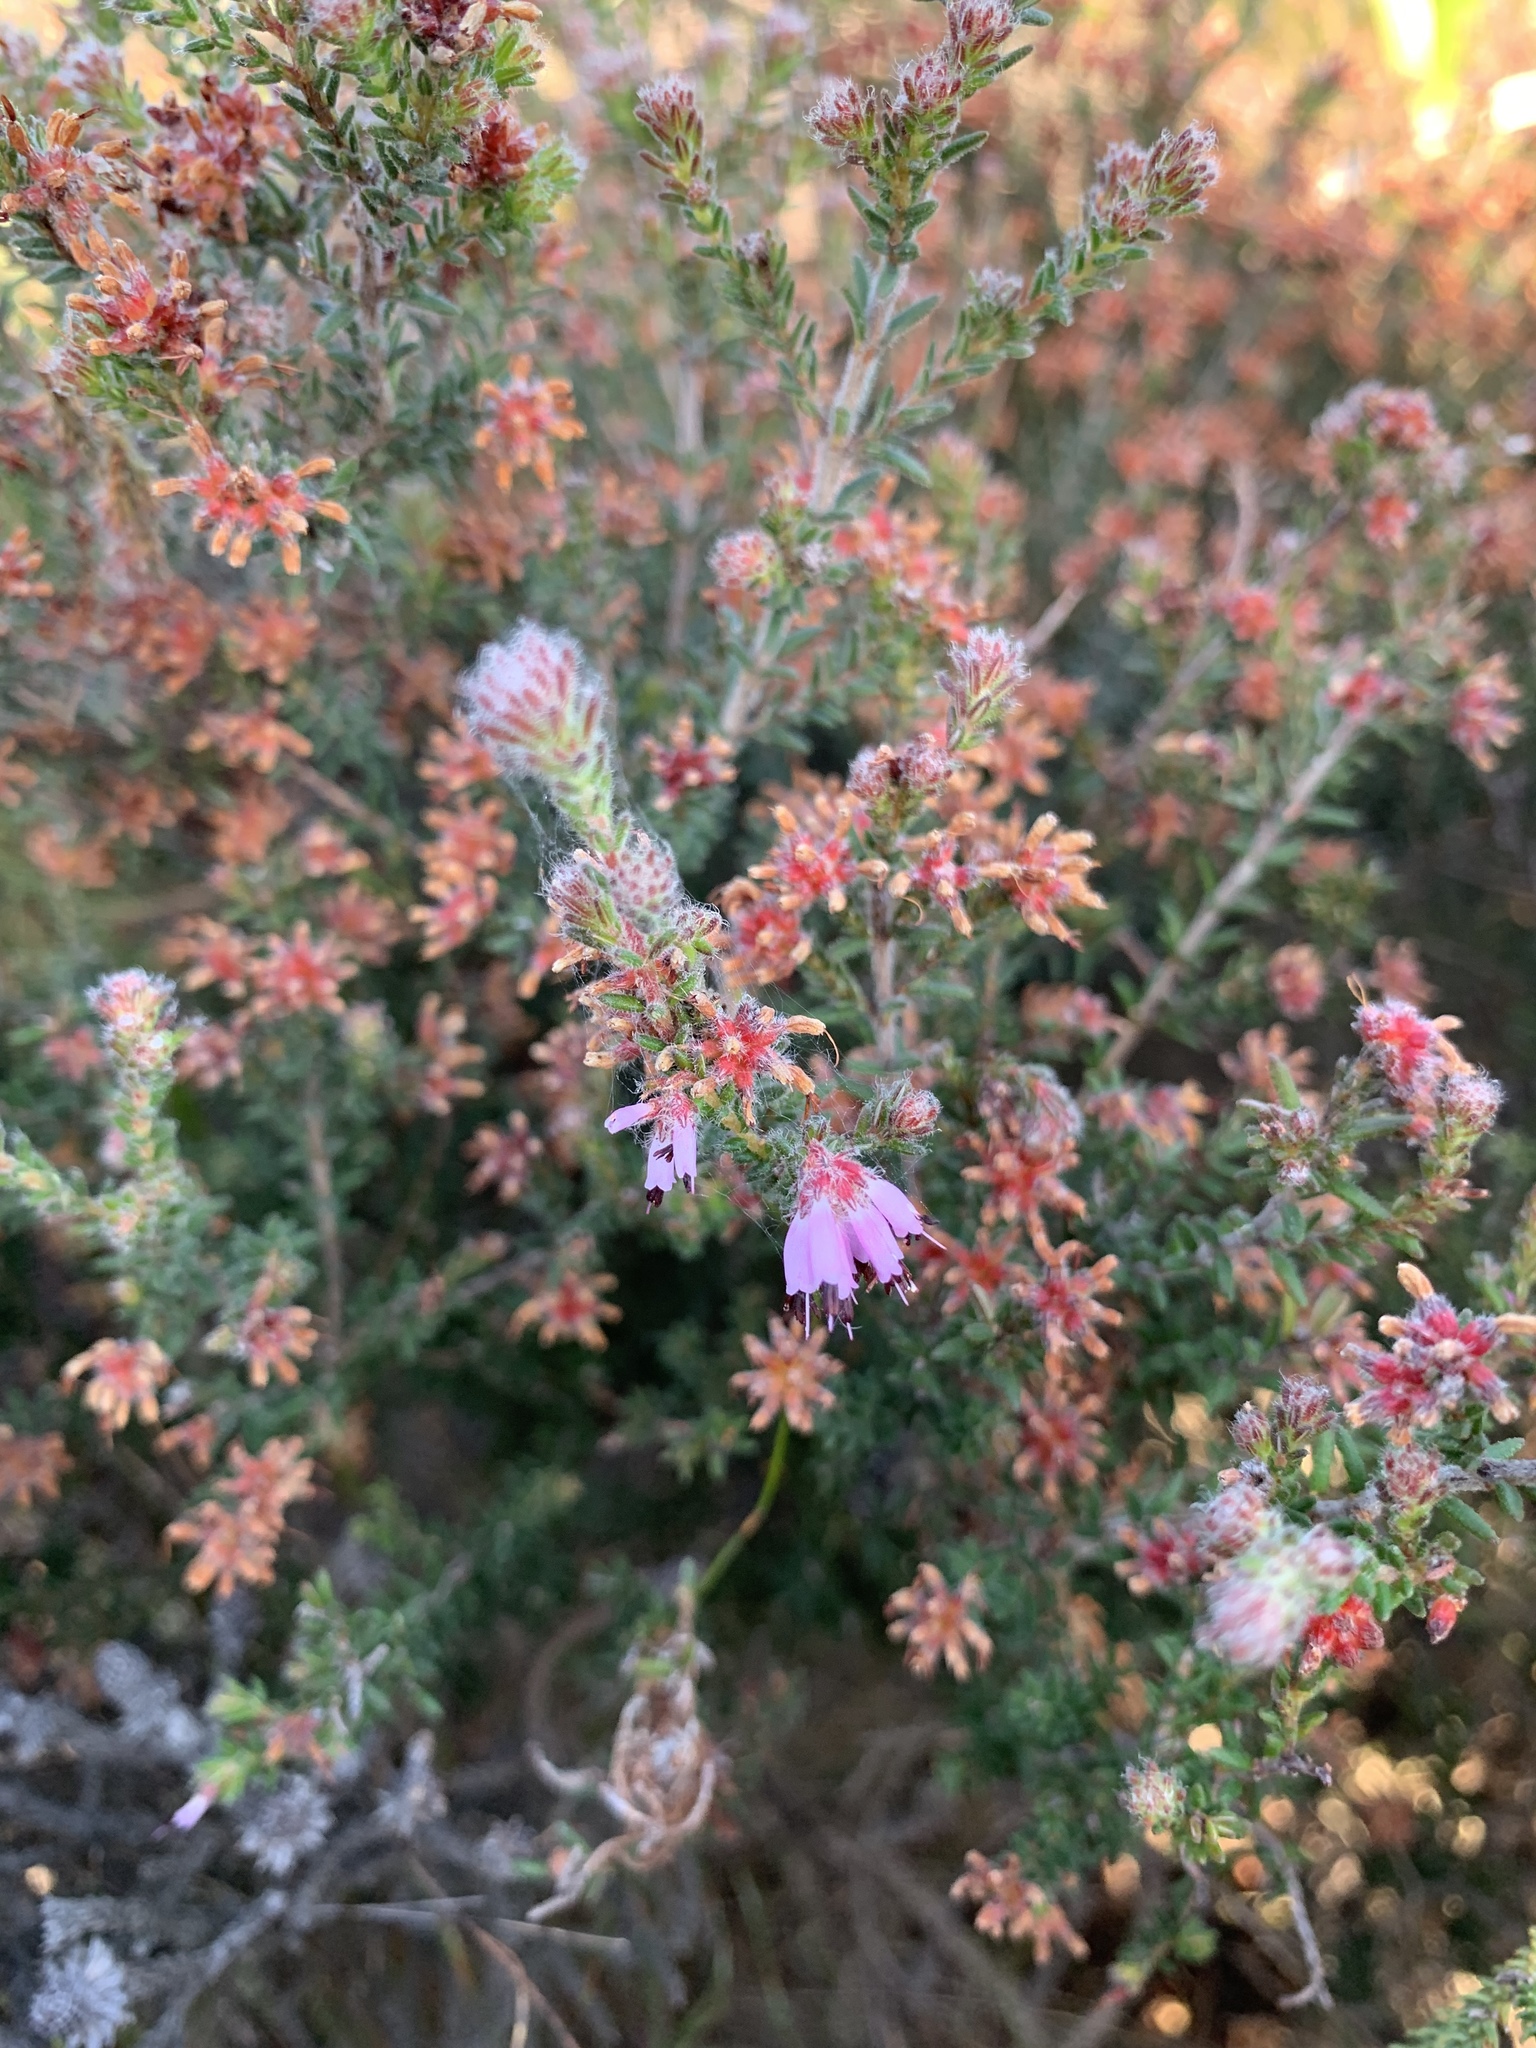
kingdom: Plantae
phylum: Tracheophyta
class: Magnoliopsida
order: Ericales
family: Ericaceae
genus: Erica
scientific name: Erica ericoides
